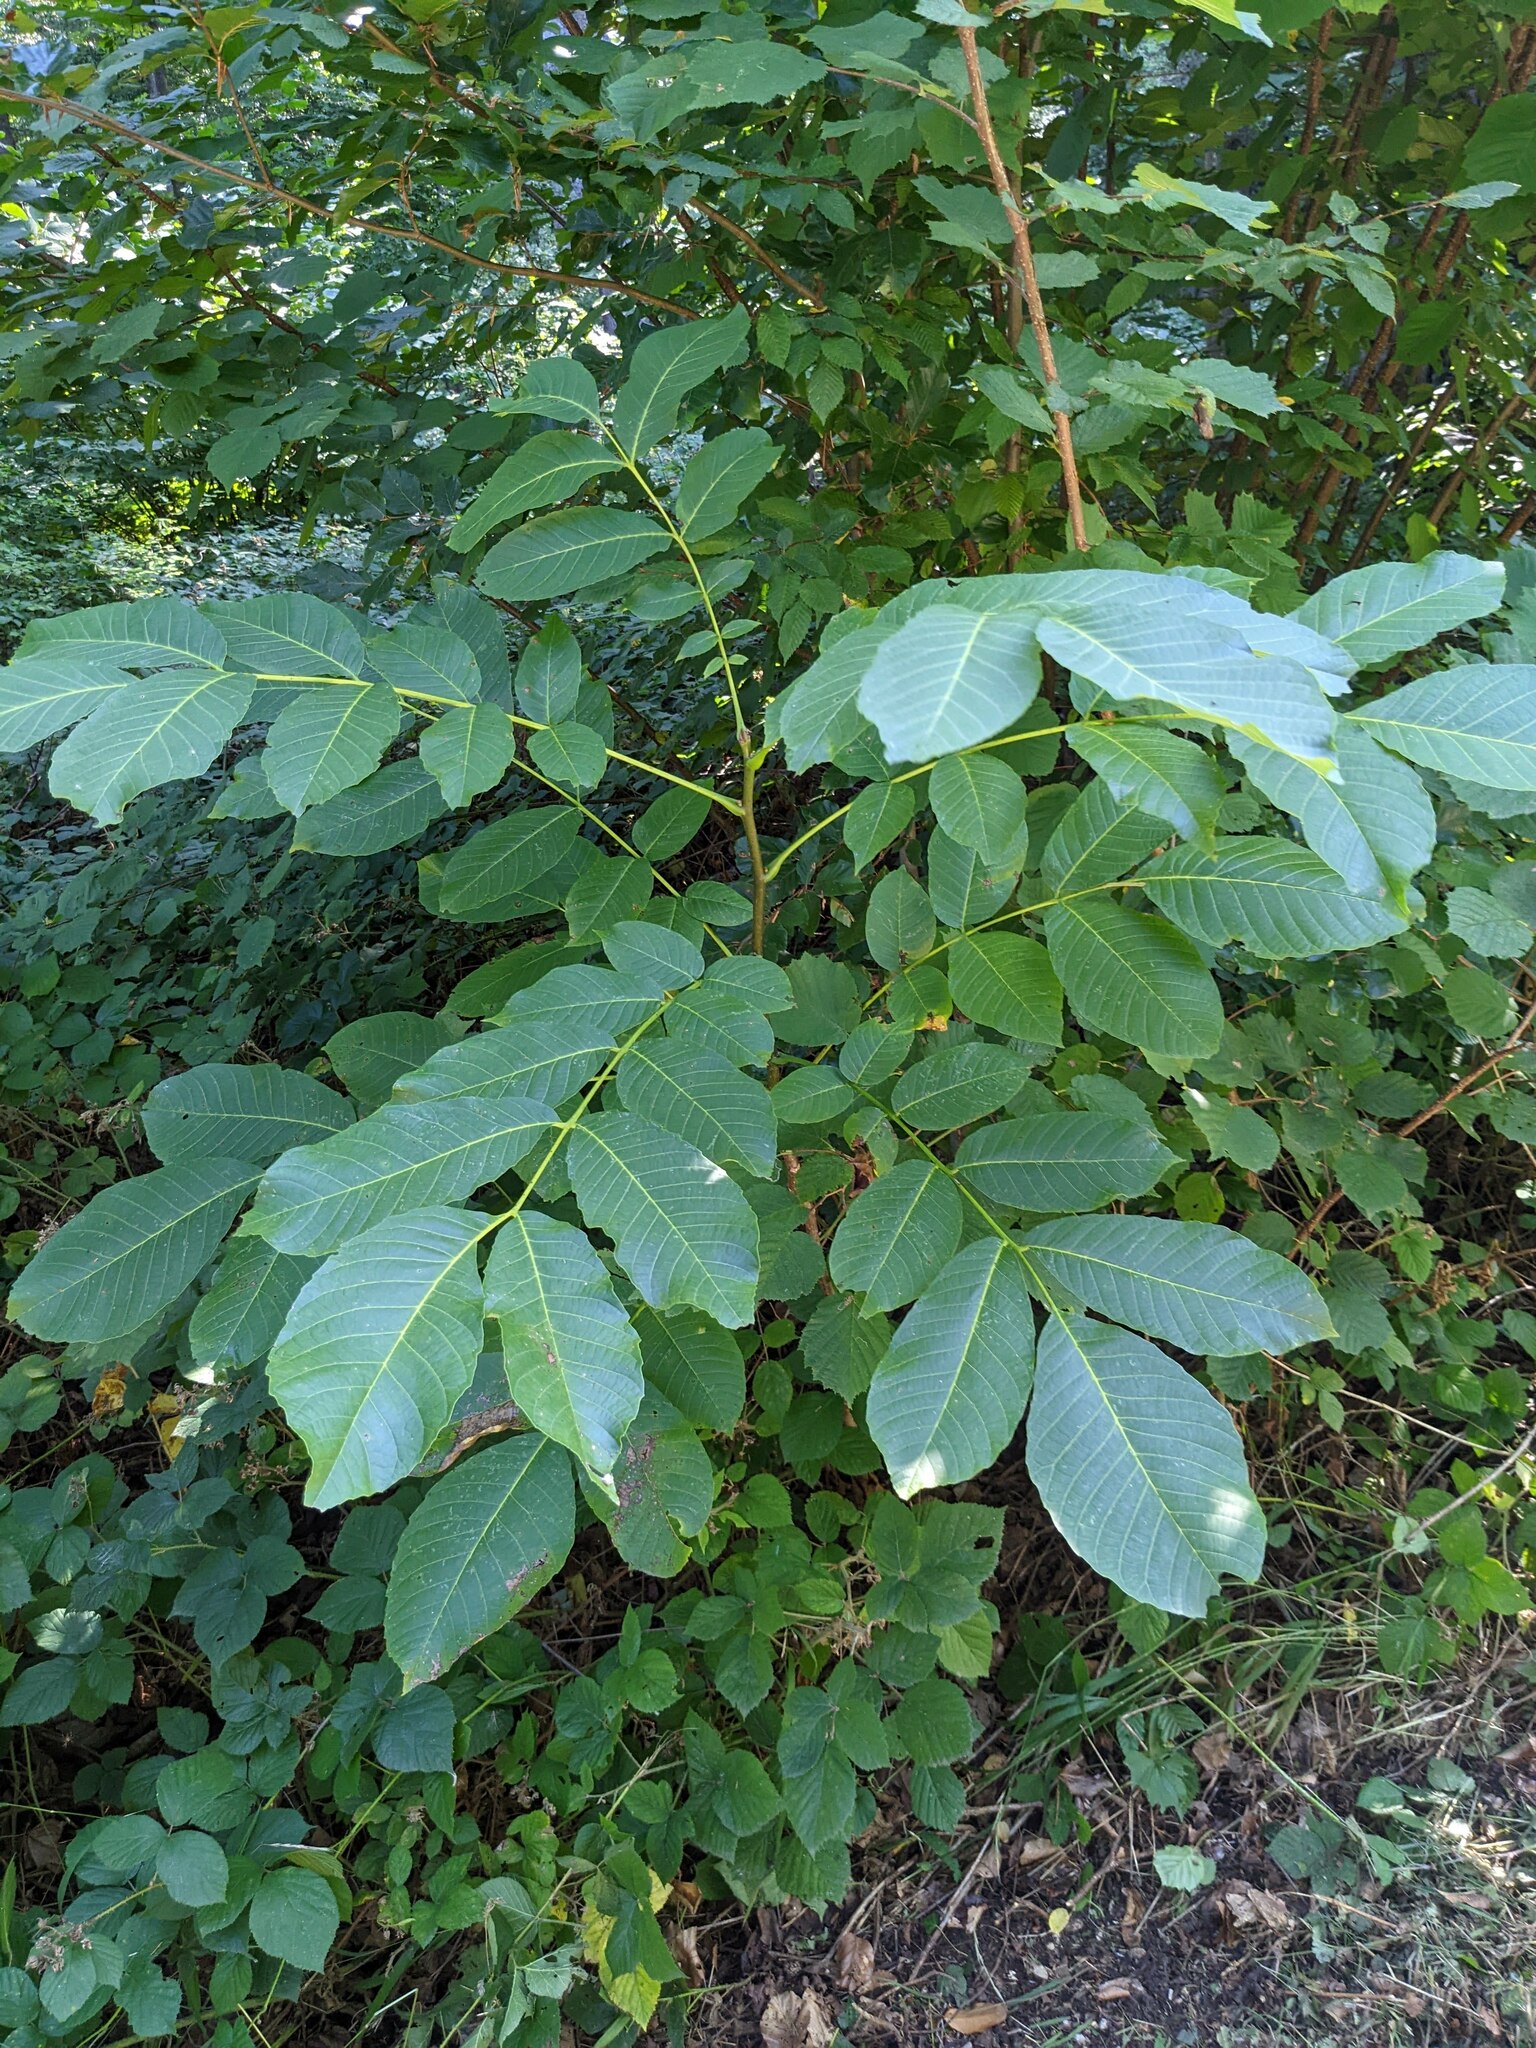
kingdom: Plantae
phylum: Tracheophyta
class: Magnoliopsida
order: Fagales
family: Juglandaceae
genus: Juglans
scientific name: Juglans regia
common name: Walnut
